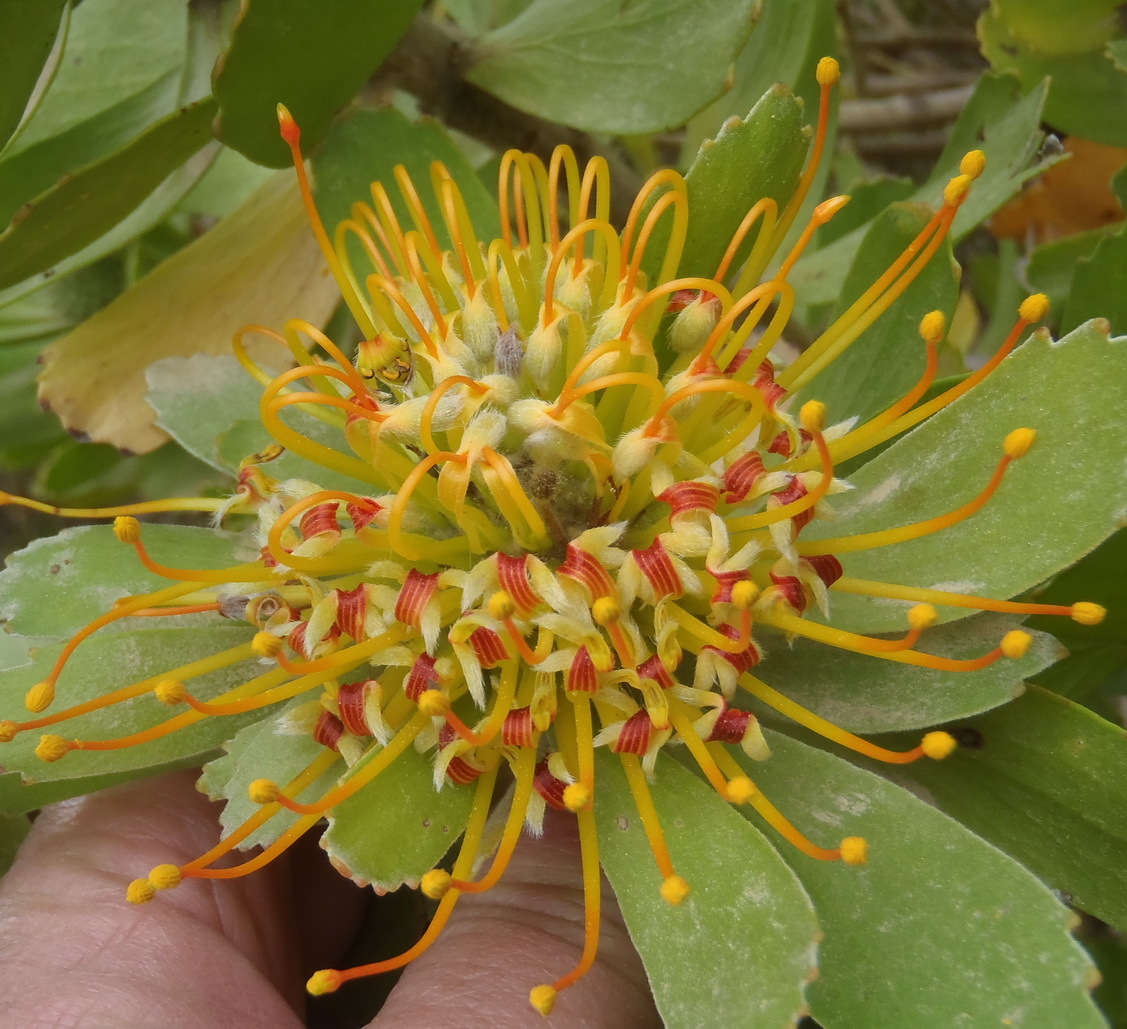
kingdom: Plantae
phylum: Tracheophyta
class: Magnoliopsida
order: Proteales
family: Proteaceae
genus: Leucospermum
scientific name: Leucospermum praecox
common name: Mossel bay pincushion
